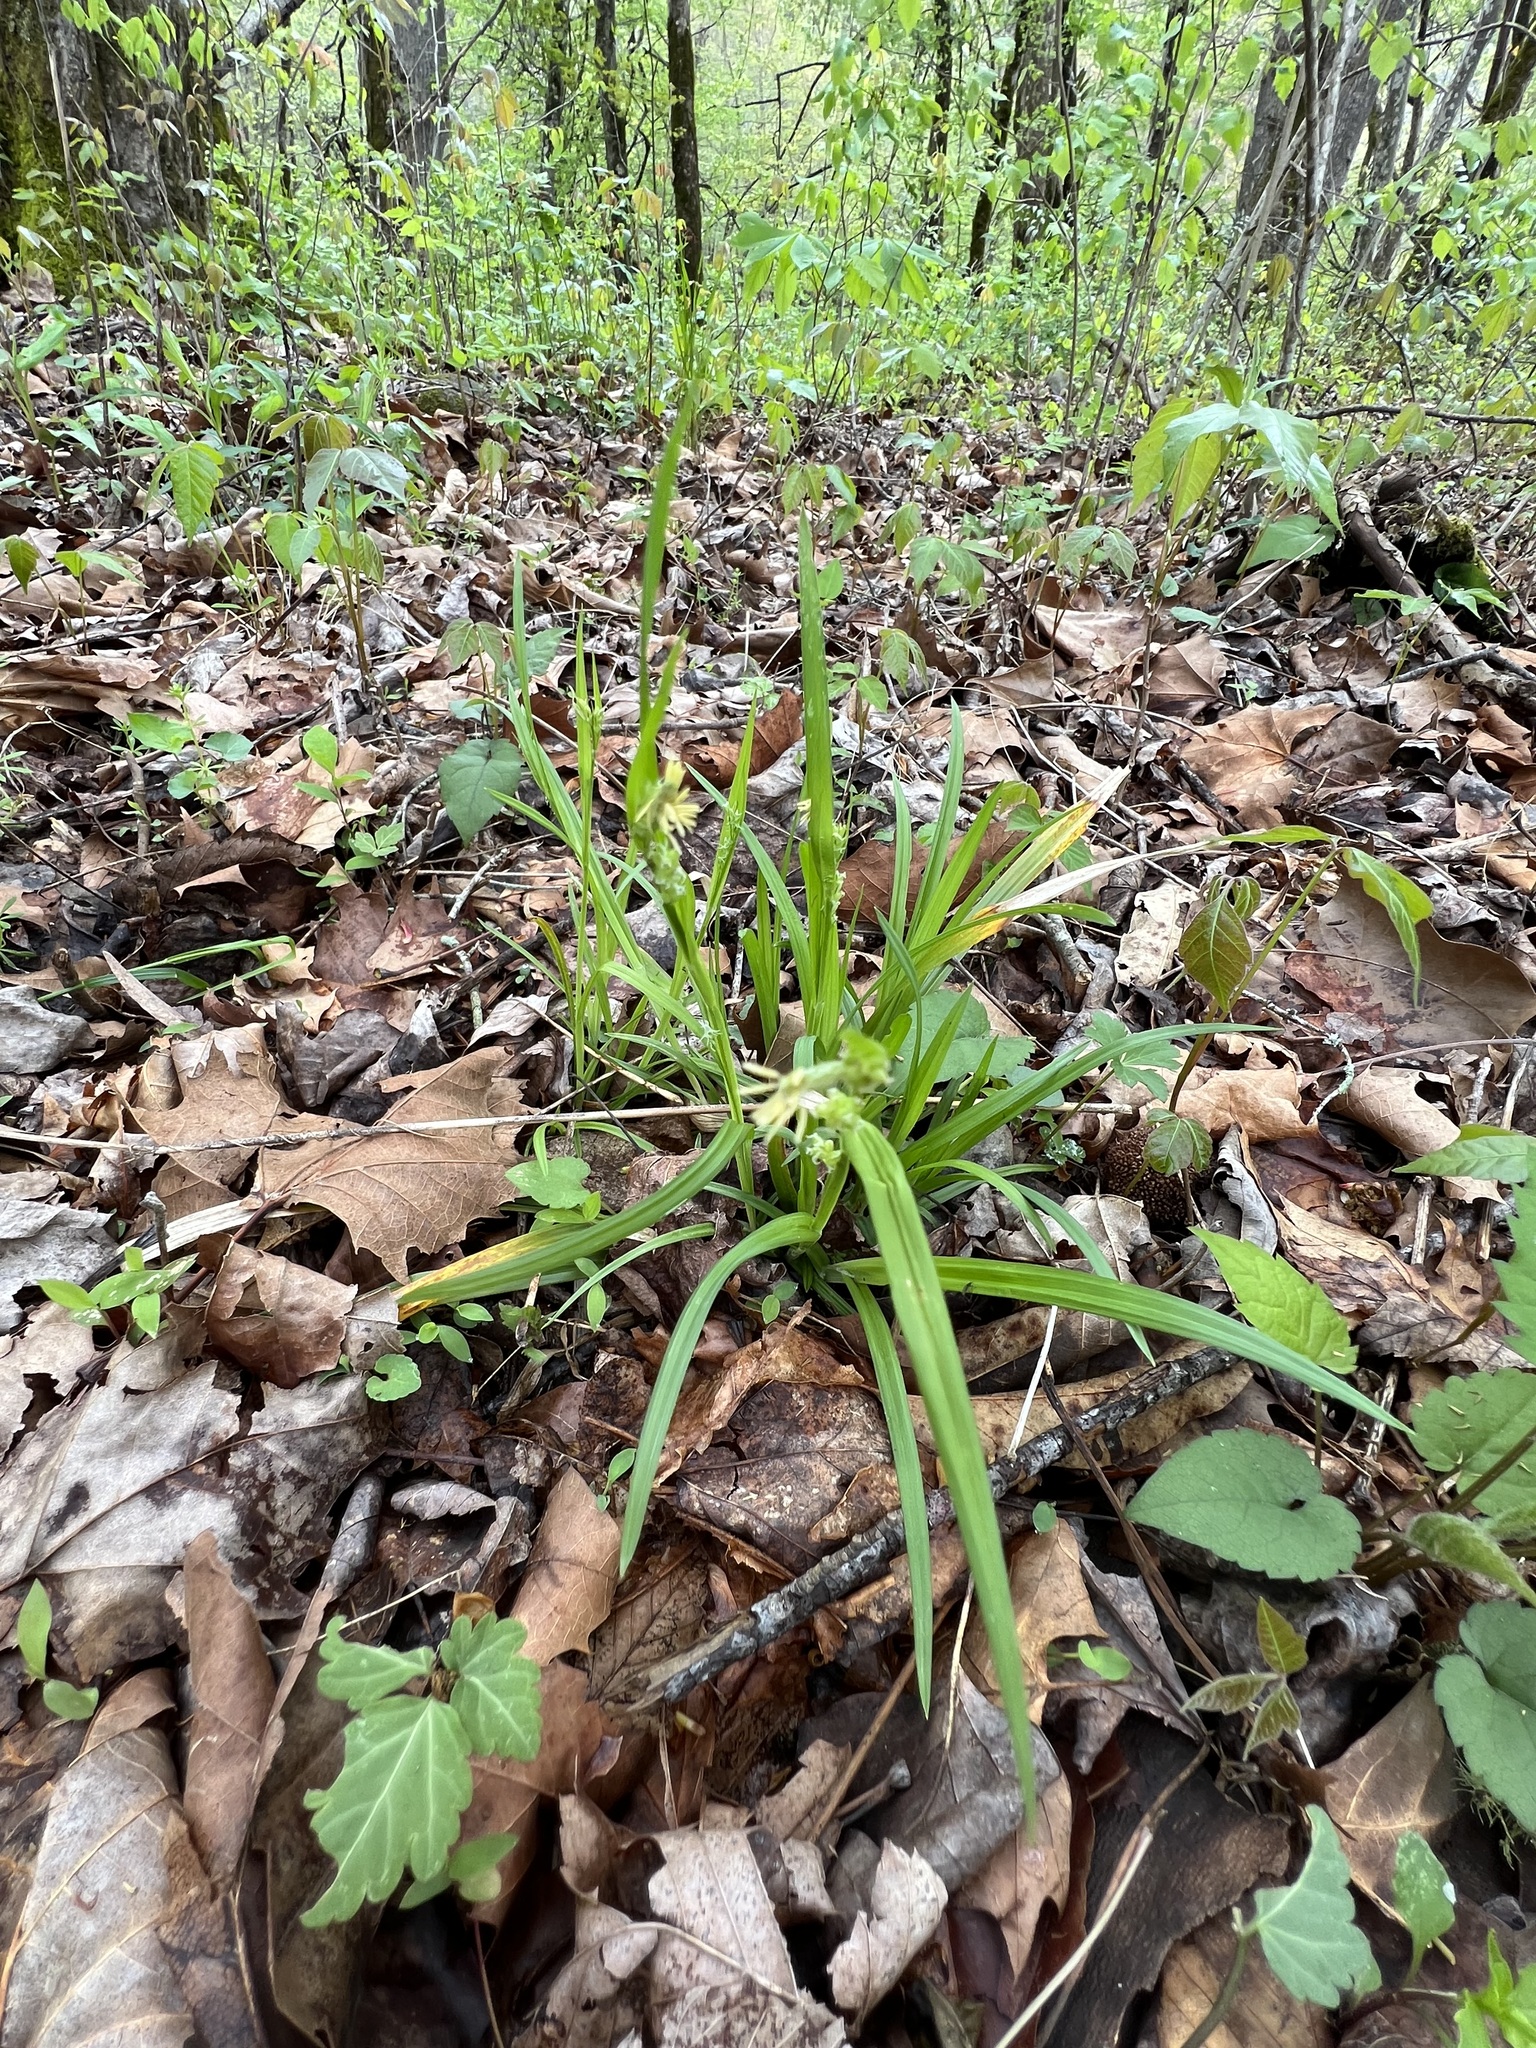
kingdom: Plantae
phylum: Tracheophyta
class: Magnoliopsida
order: Gentianales
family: Rubiaceae
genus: Galium
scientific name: Galium aparine
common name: Cleavers
